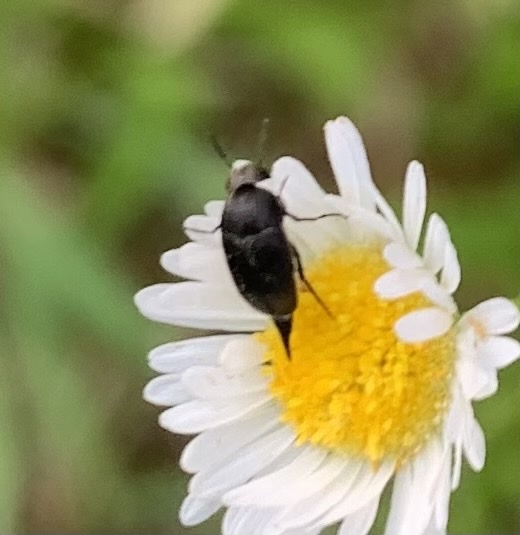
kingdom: Animalia
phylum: Arthropoda
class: Insecta
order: Coleoptera
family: Mordellidae
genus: Mordella
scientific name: Mordella marginata
